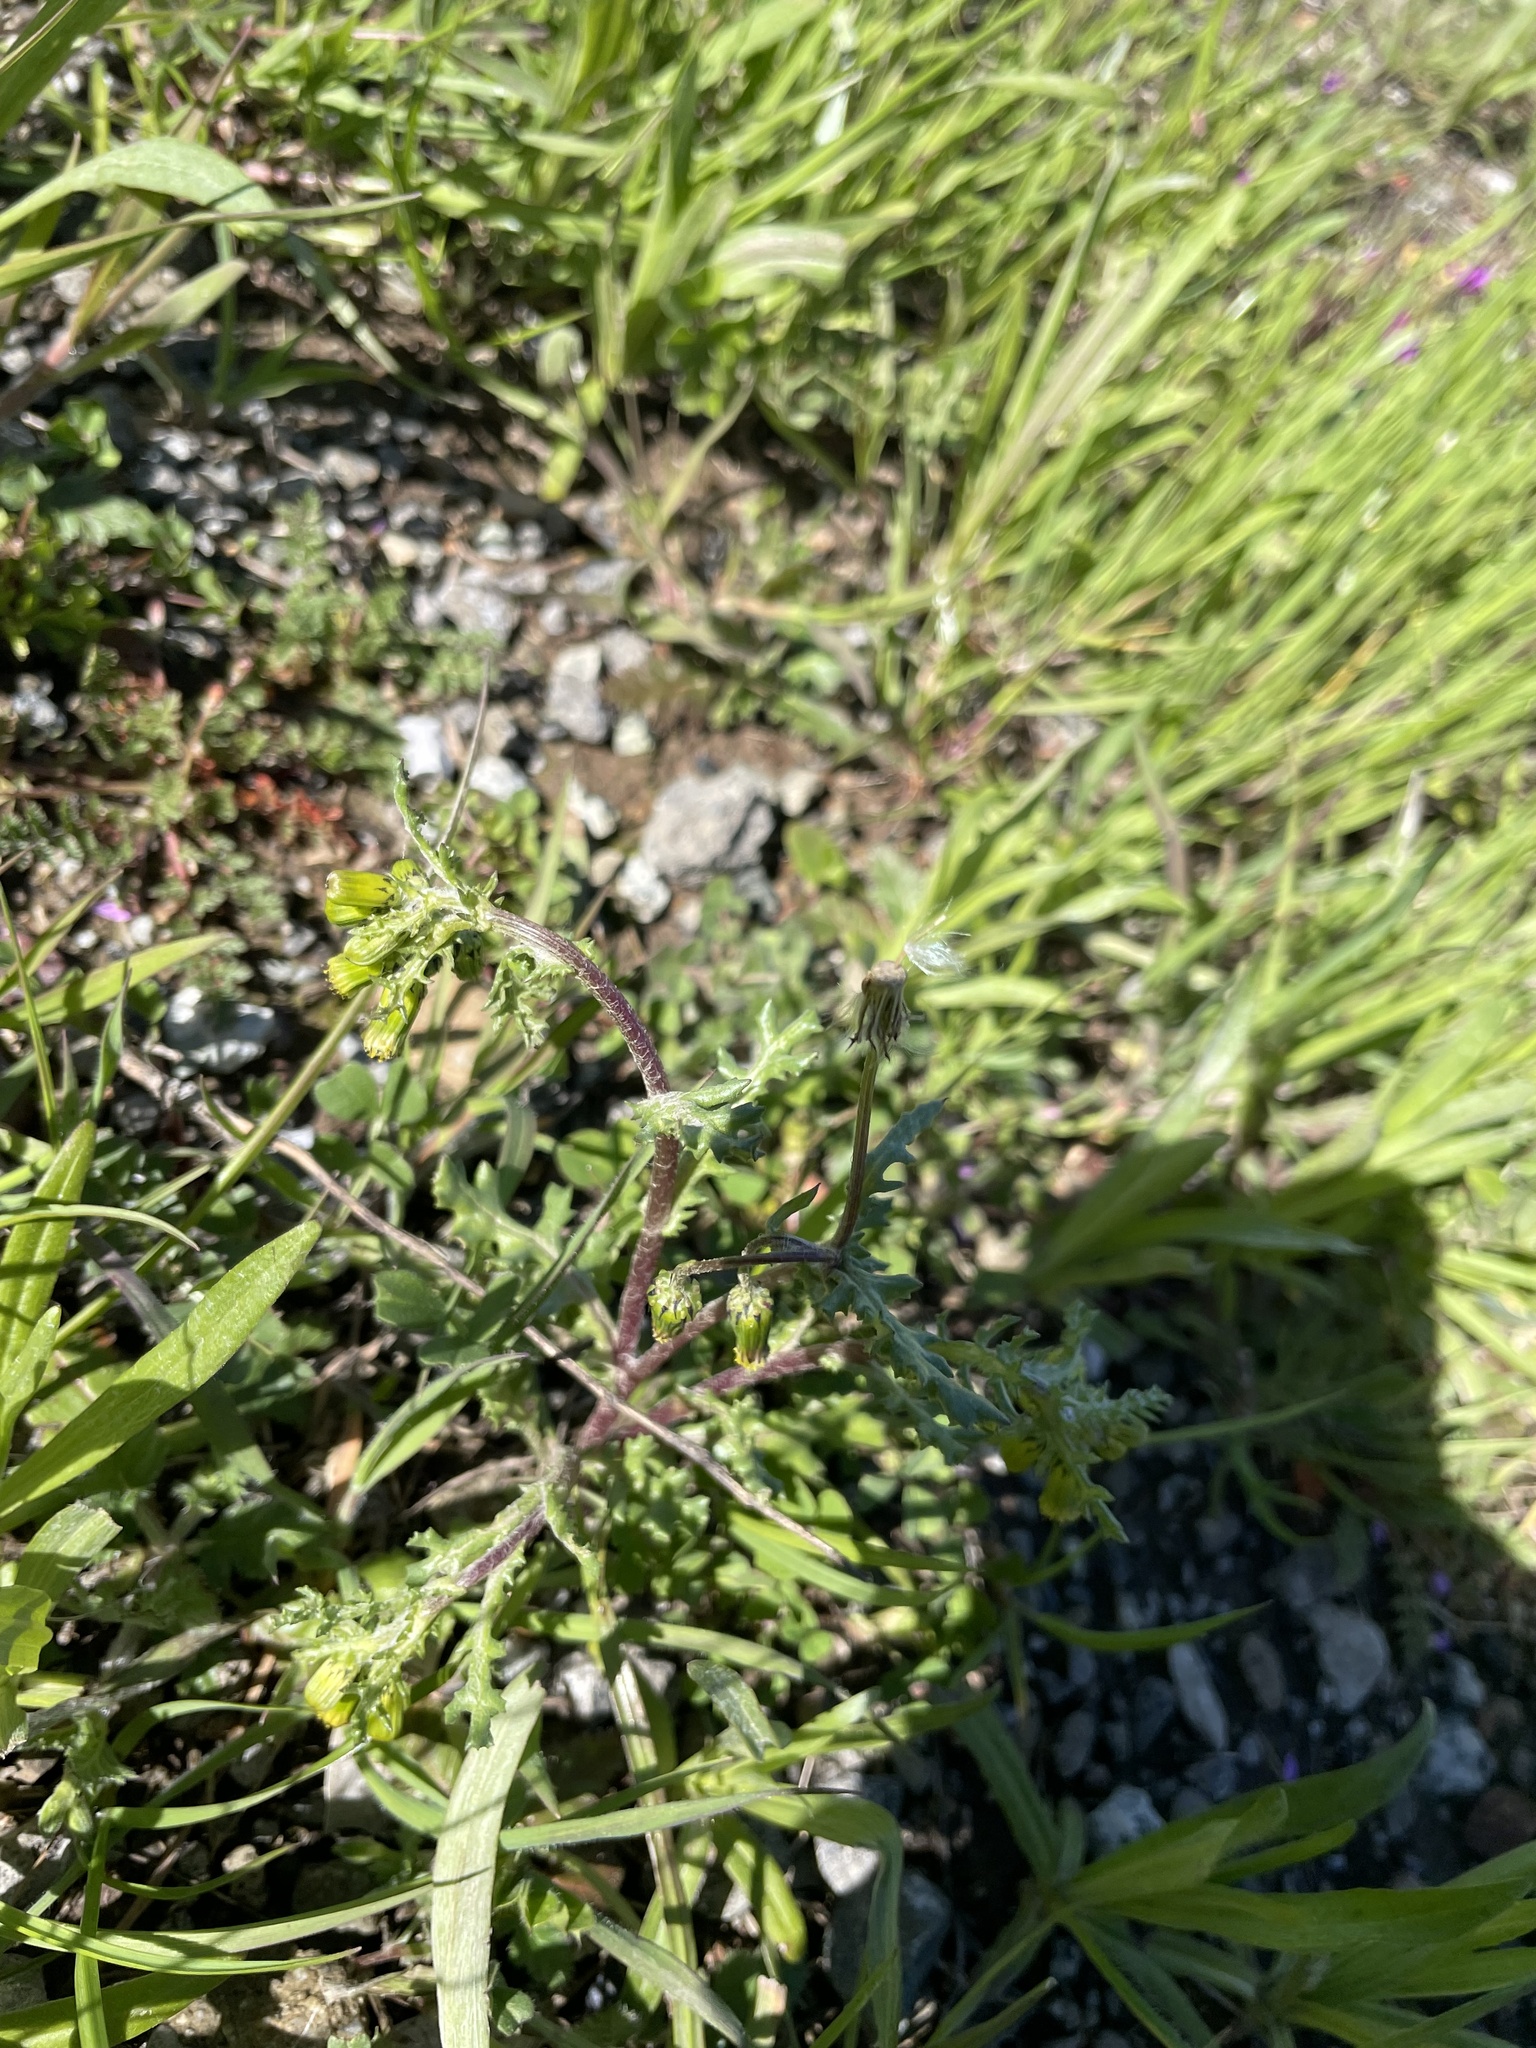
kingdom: Plantae
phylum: Tracheophyta
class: Magnoliopsida
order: Asterales
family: Asteraceae
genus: Senecio
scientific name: Senecio vulgaris
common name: Old-man-in-the-spring
